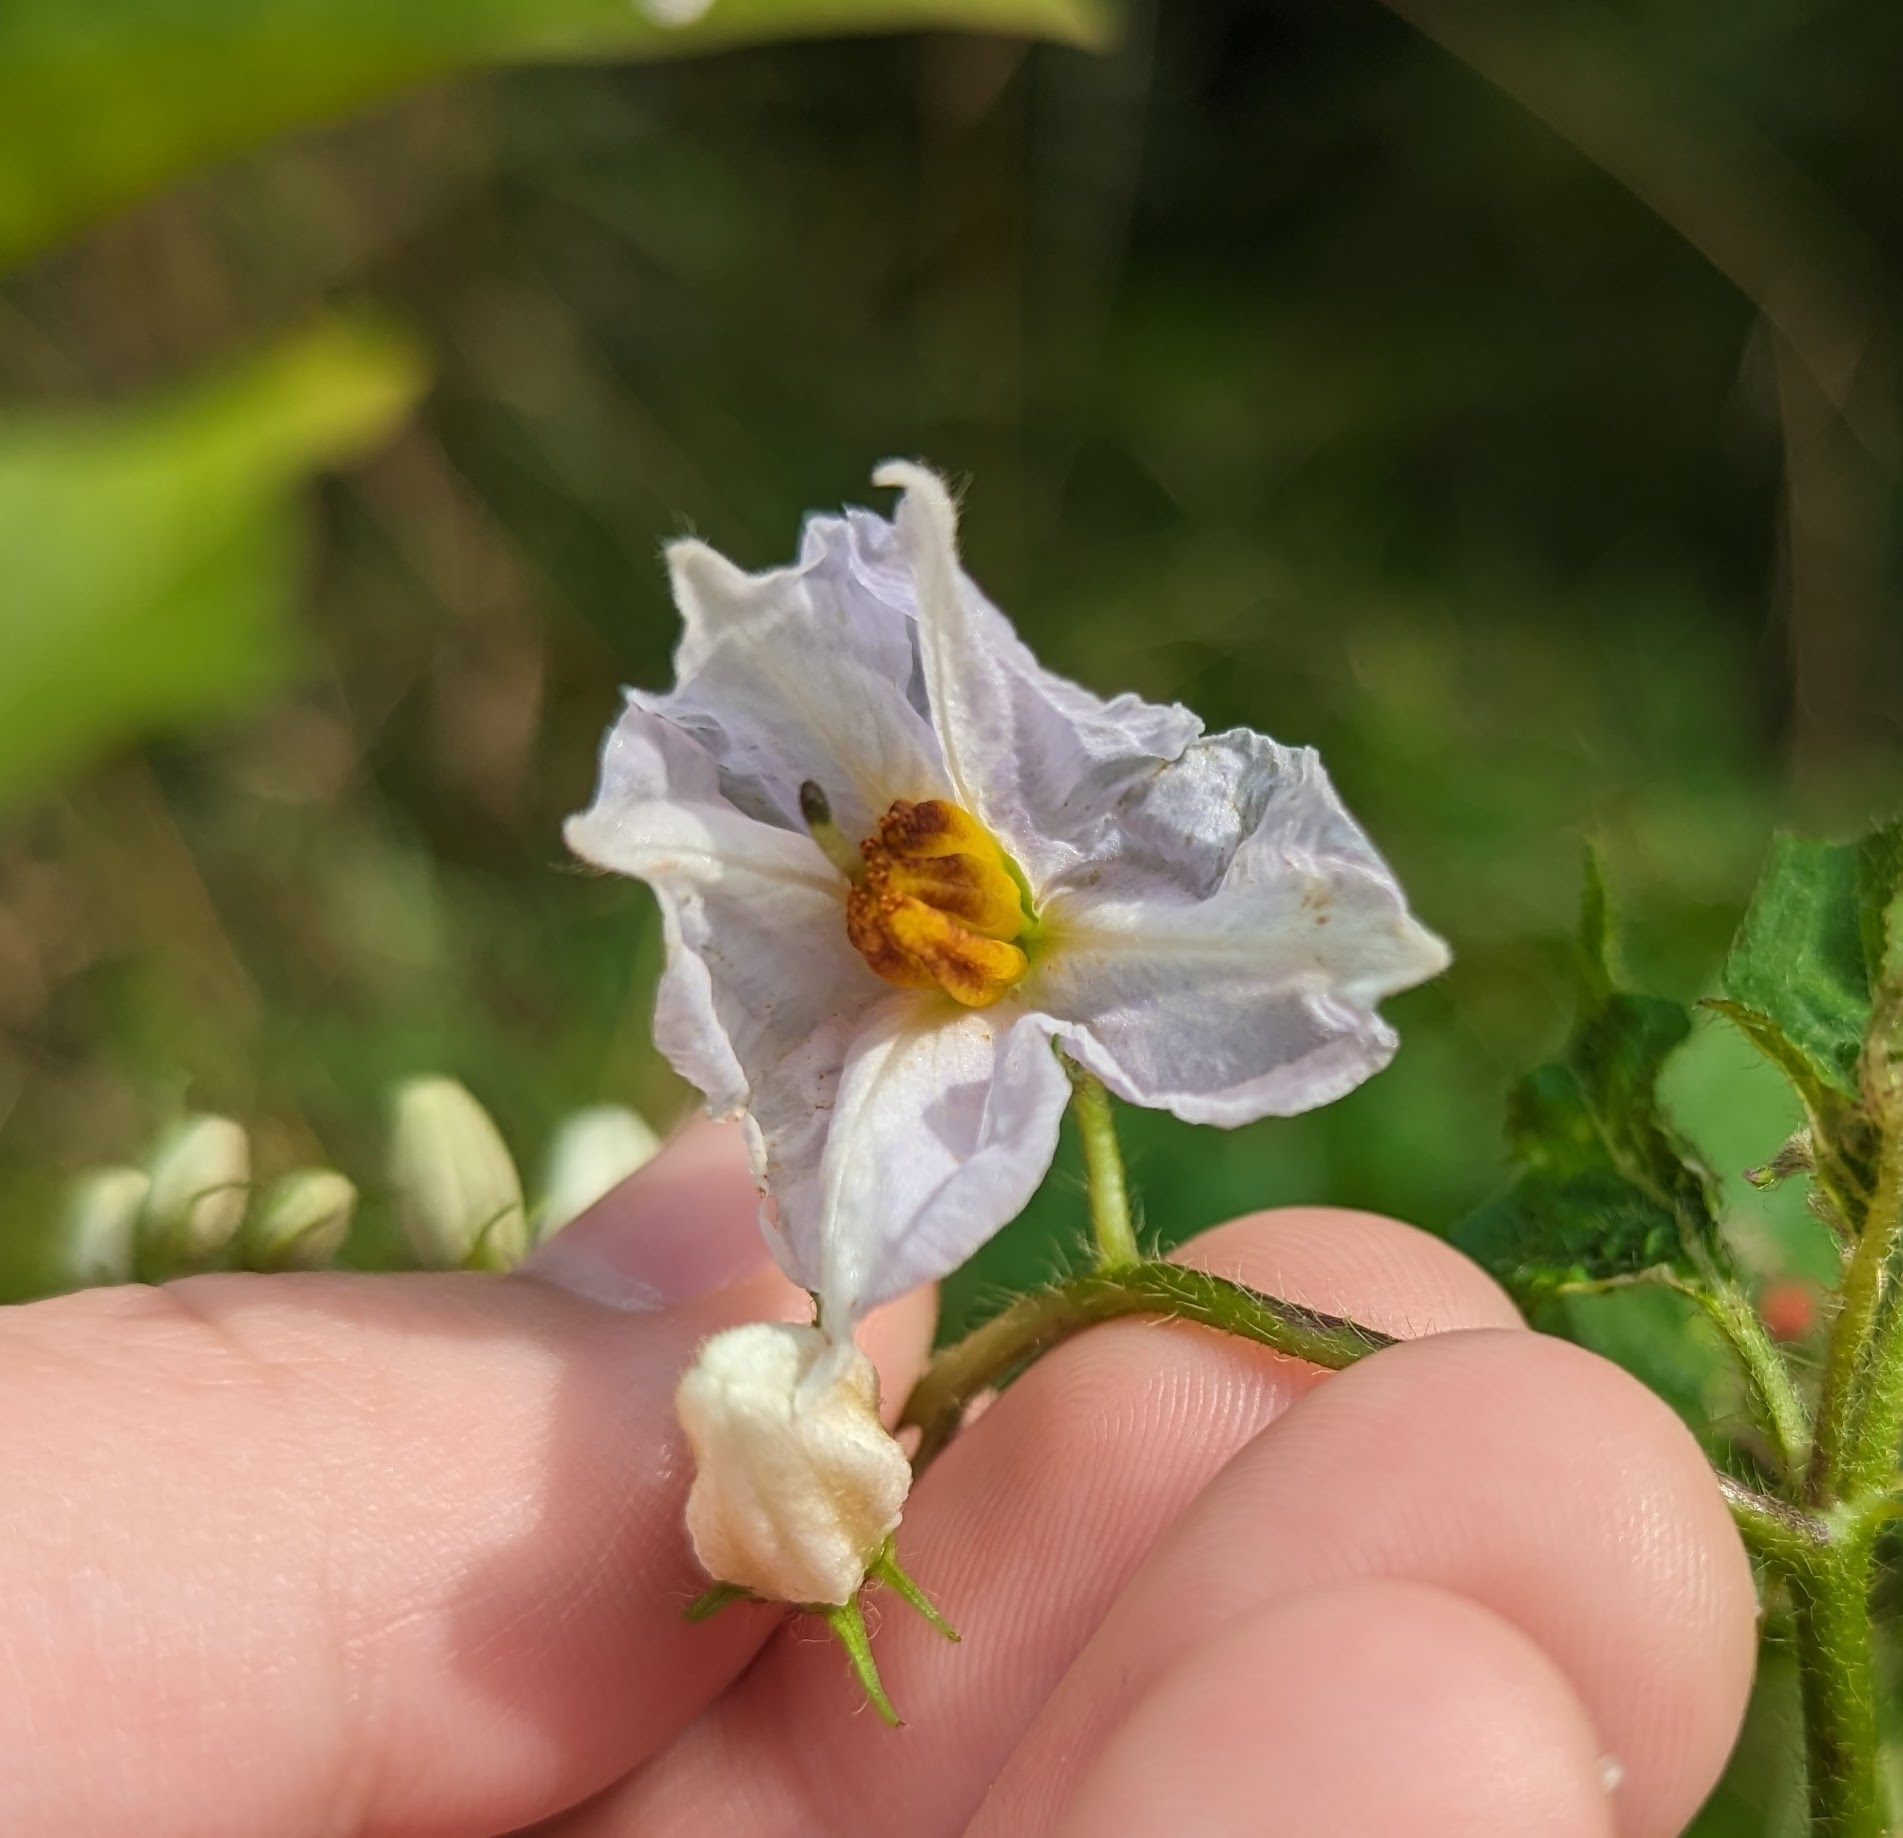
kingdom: Plantae
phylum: Tracheophyta
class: Magnoliopsida
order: Solanales
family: Solanaceae
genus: Solanum
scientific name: Solanum carolinense
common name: Horse-nettle
